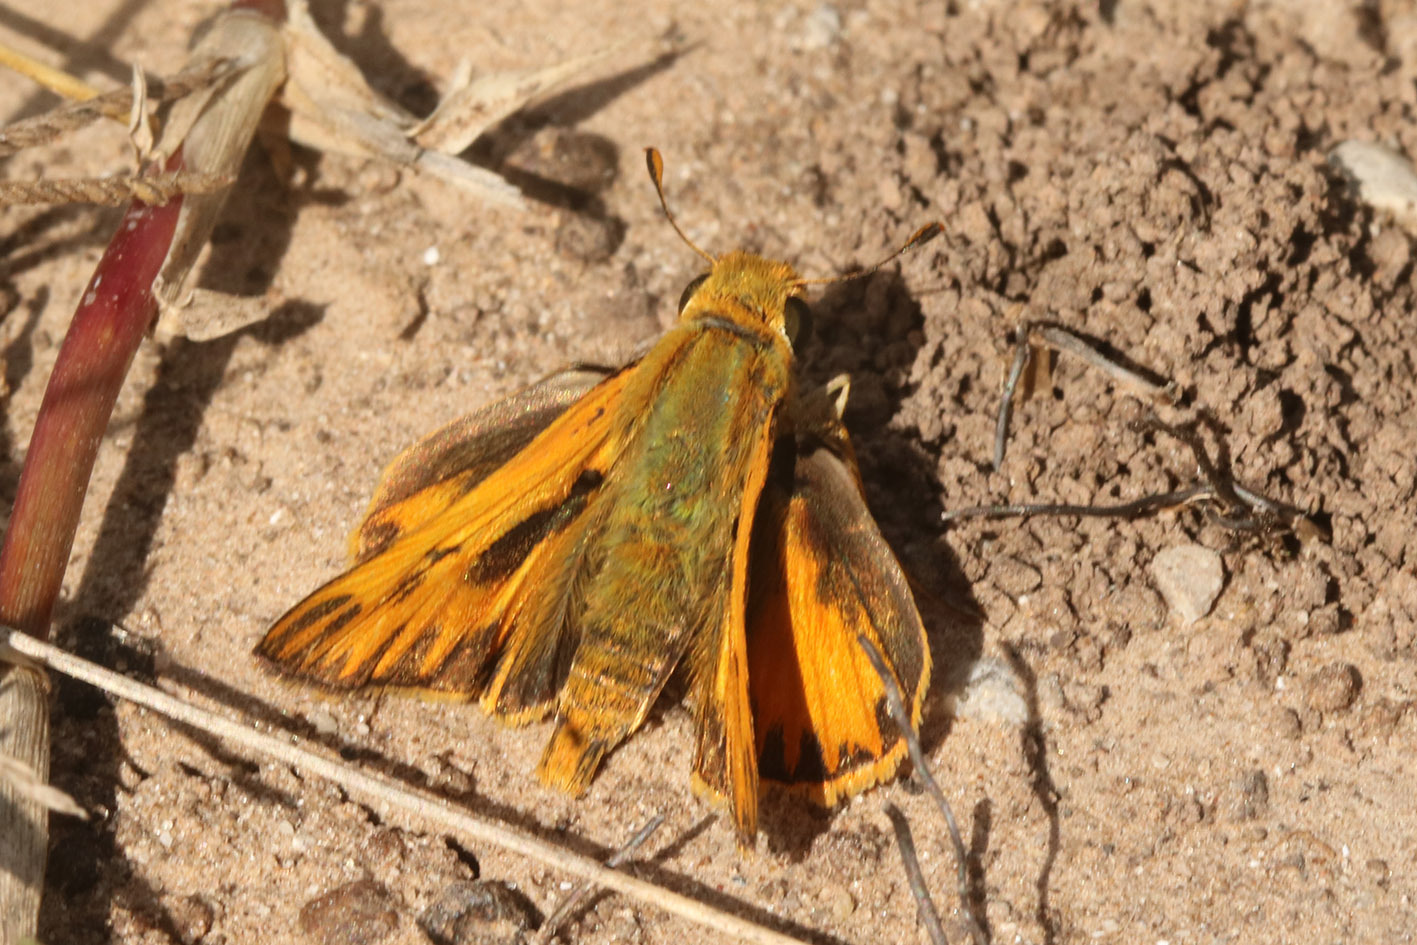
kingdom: Animalia
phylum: Arthropoda
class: Insecta
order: Lepidoptera
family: Hesperiidae
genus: Hylephila
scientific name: Hylephila phyleus
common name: Fiery skipper
